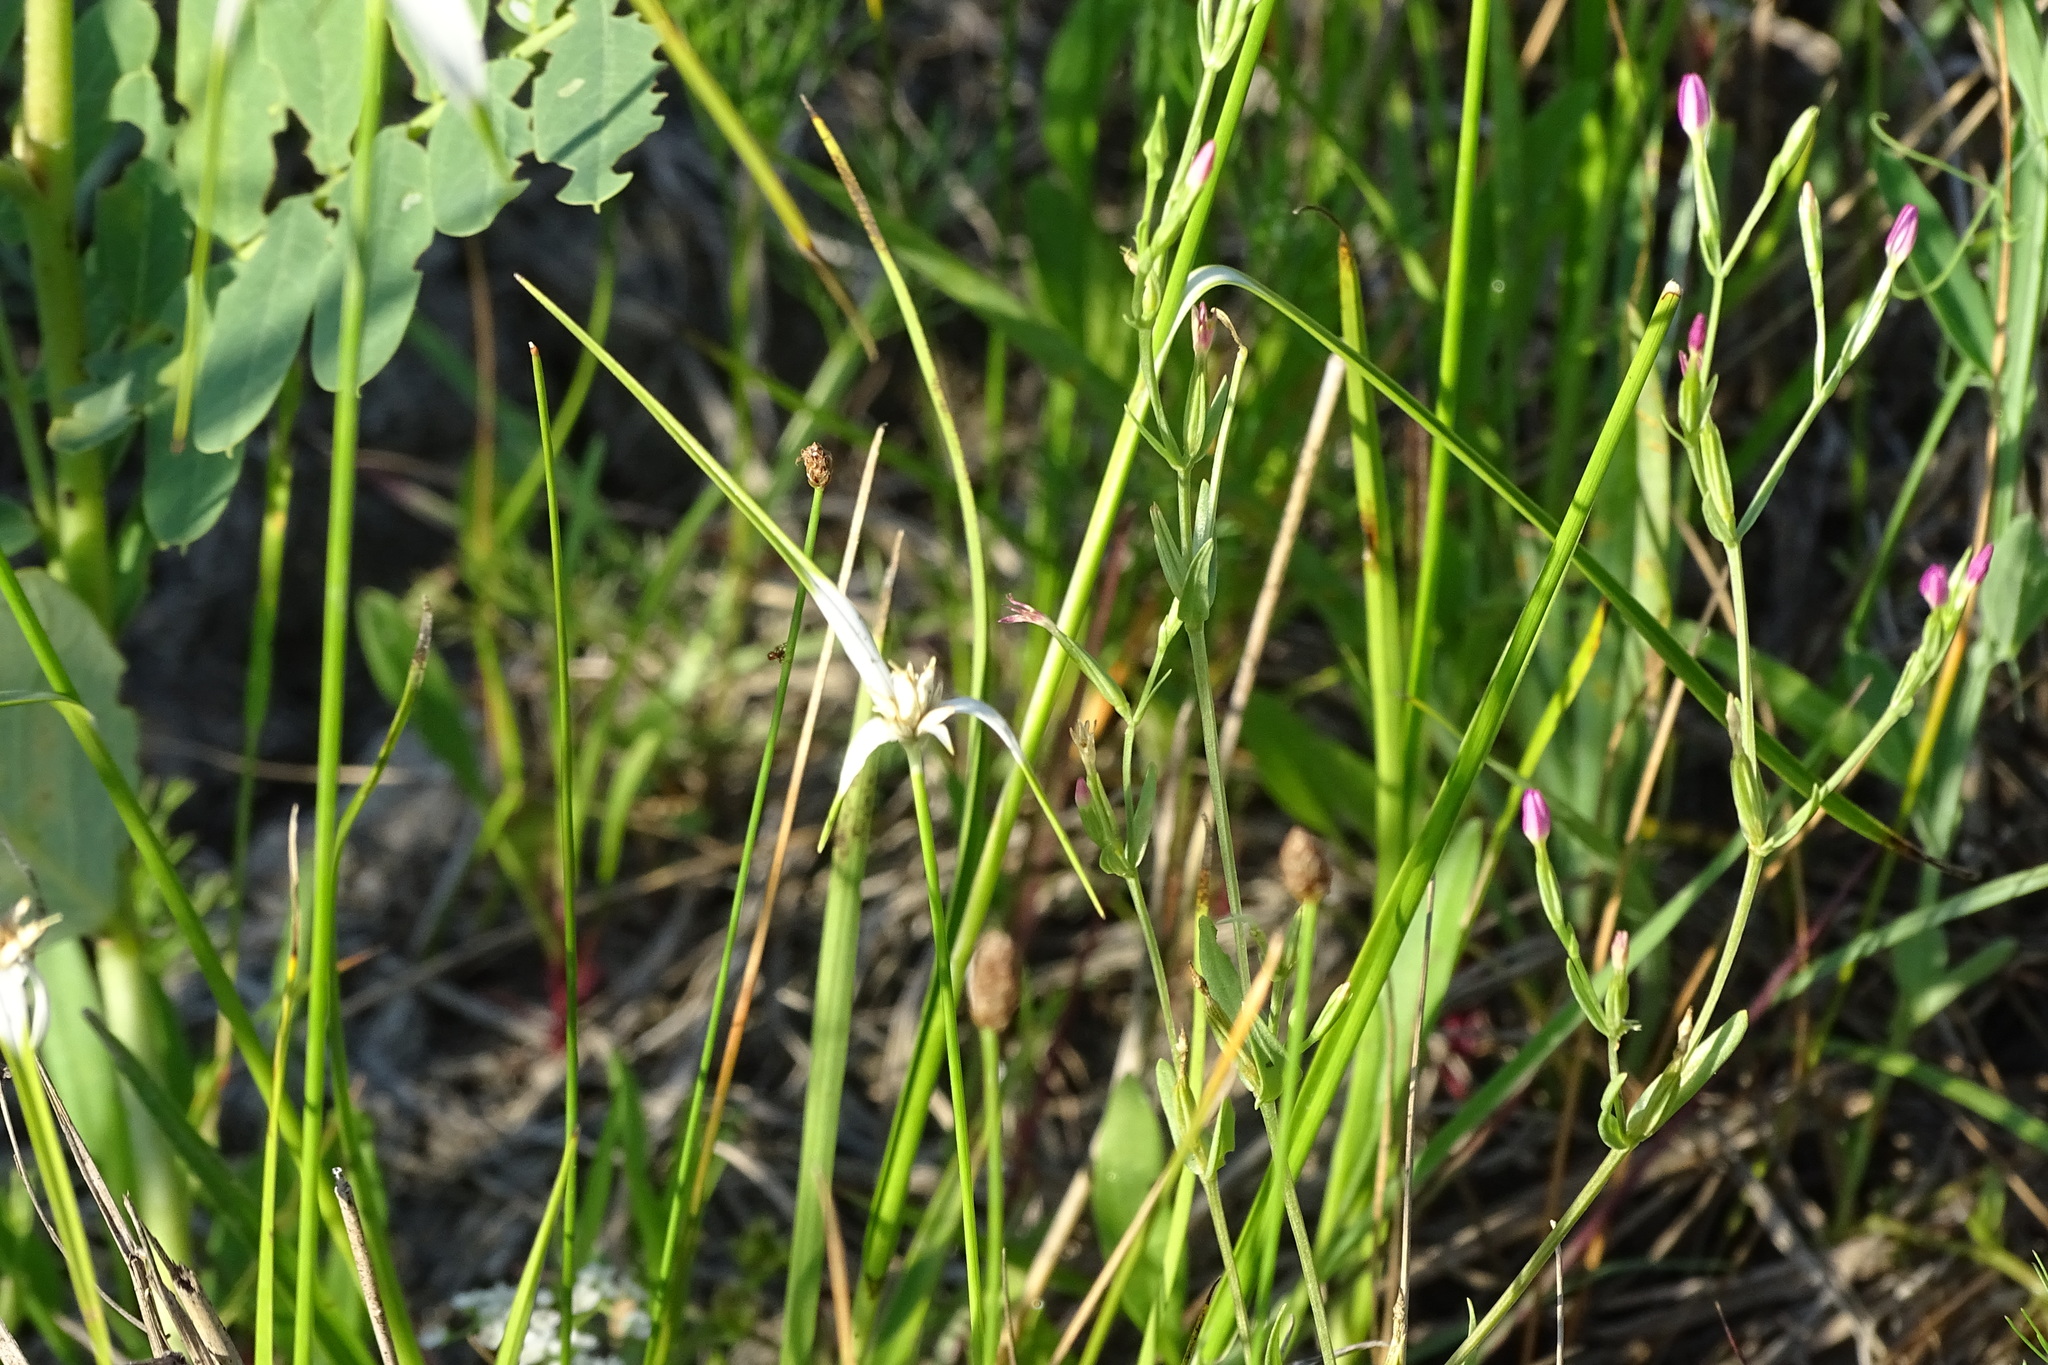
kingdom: Plantae
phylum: Tracheophyta
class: Liliopsida
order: Poales
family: Cyperaceae
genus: Rhynchospora
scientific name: Rhynchospora colorata
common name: Star sedge
